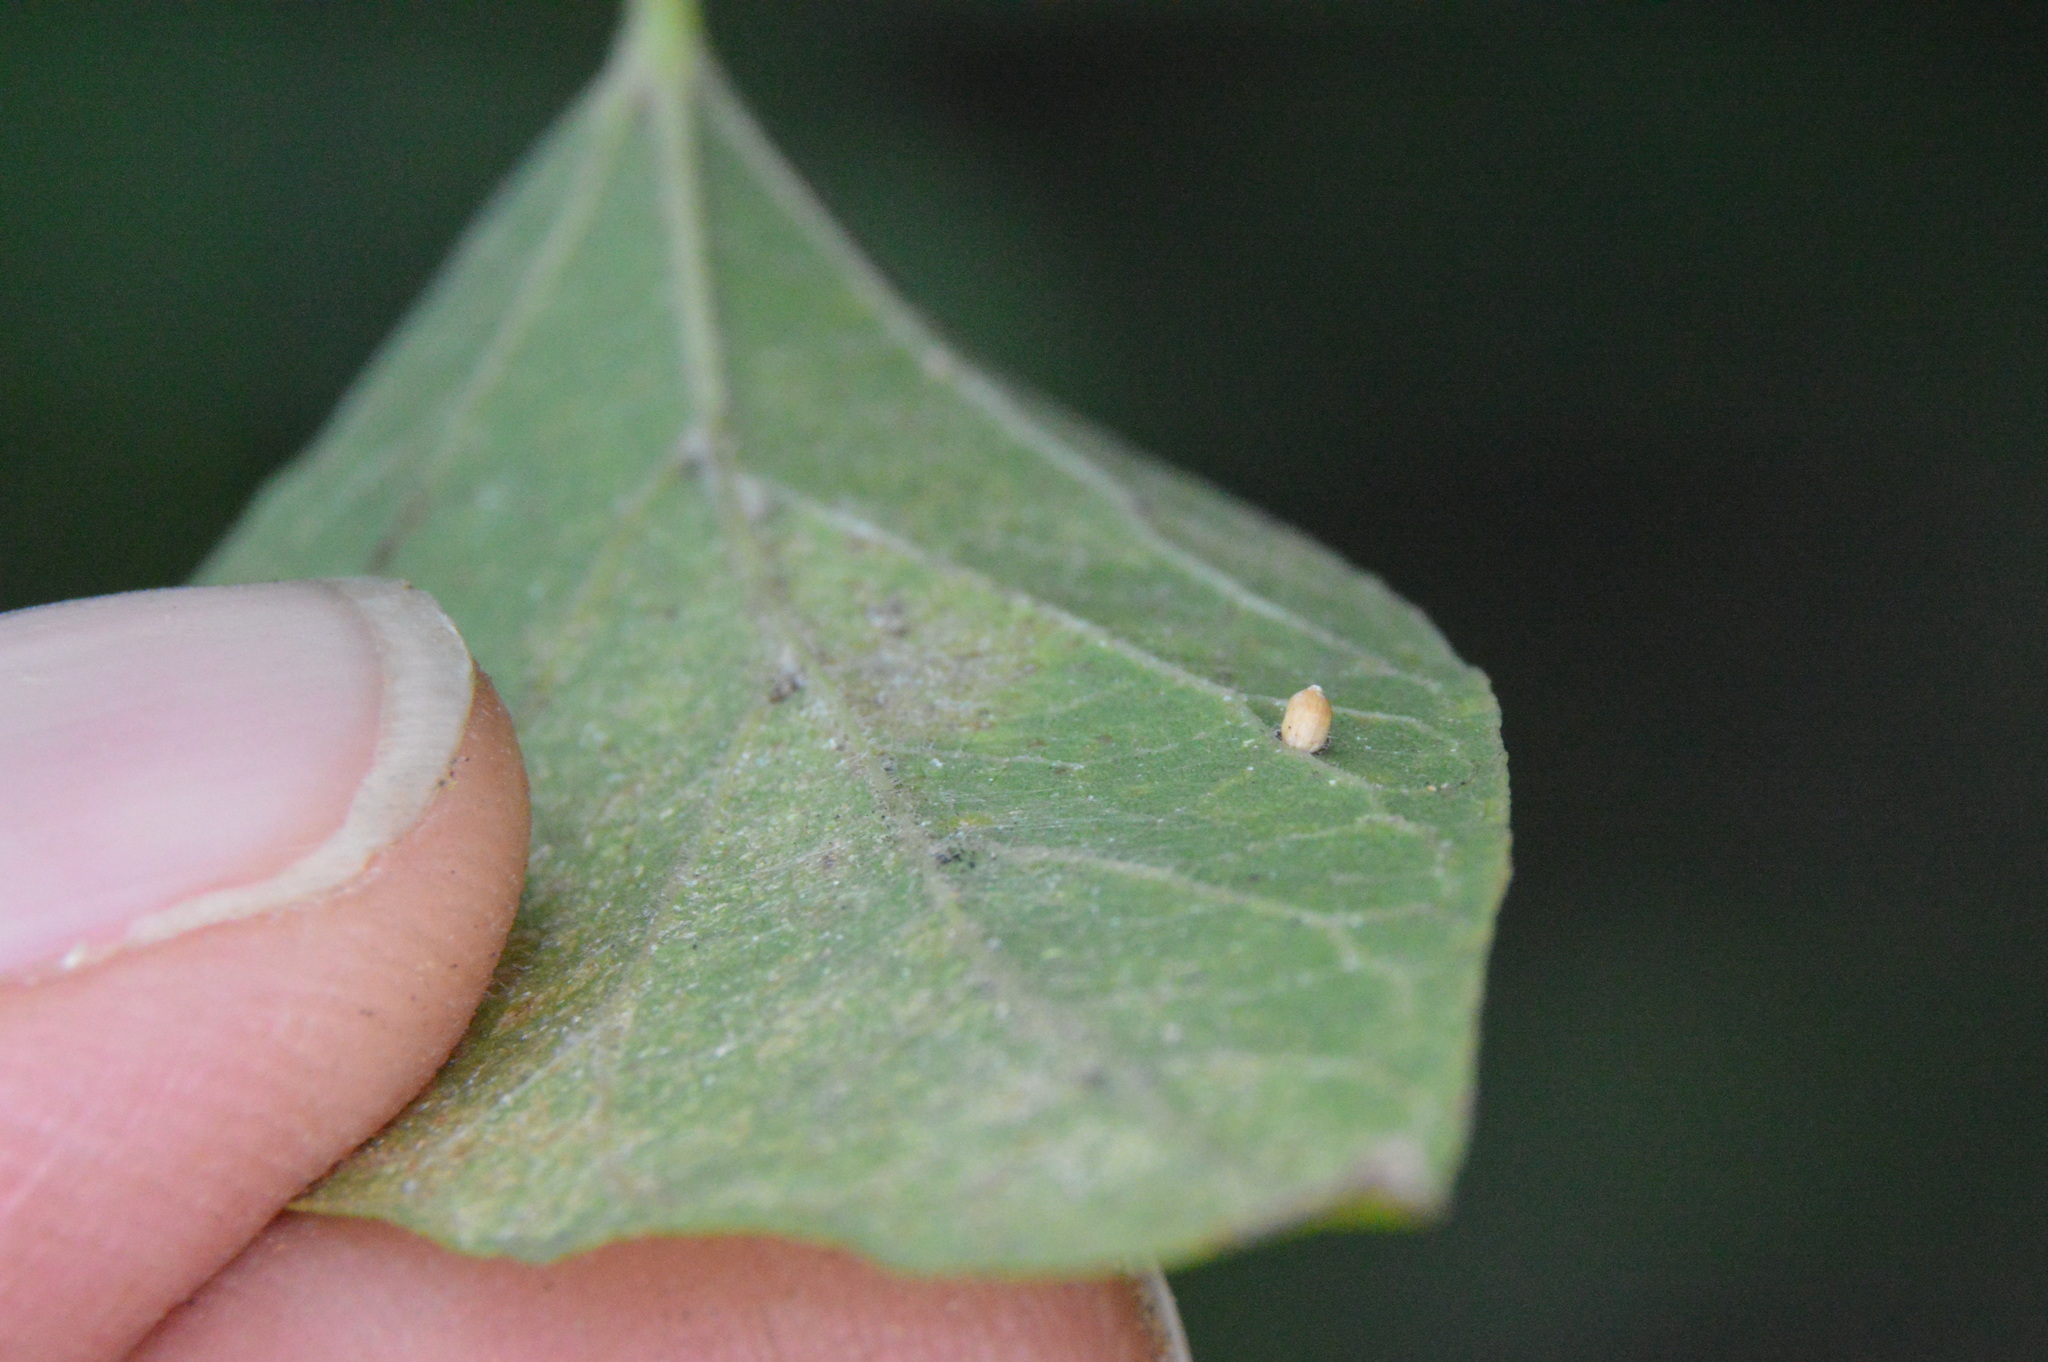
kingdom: Animalia
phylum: Arthropoda
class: Insecta
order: Diptera
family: Cecidomyiidae
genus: Celticecis
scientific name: Celticecis cupiformis
